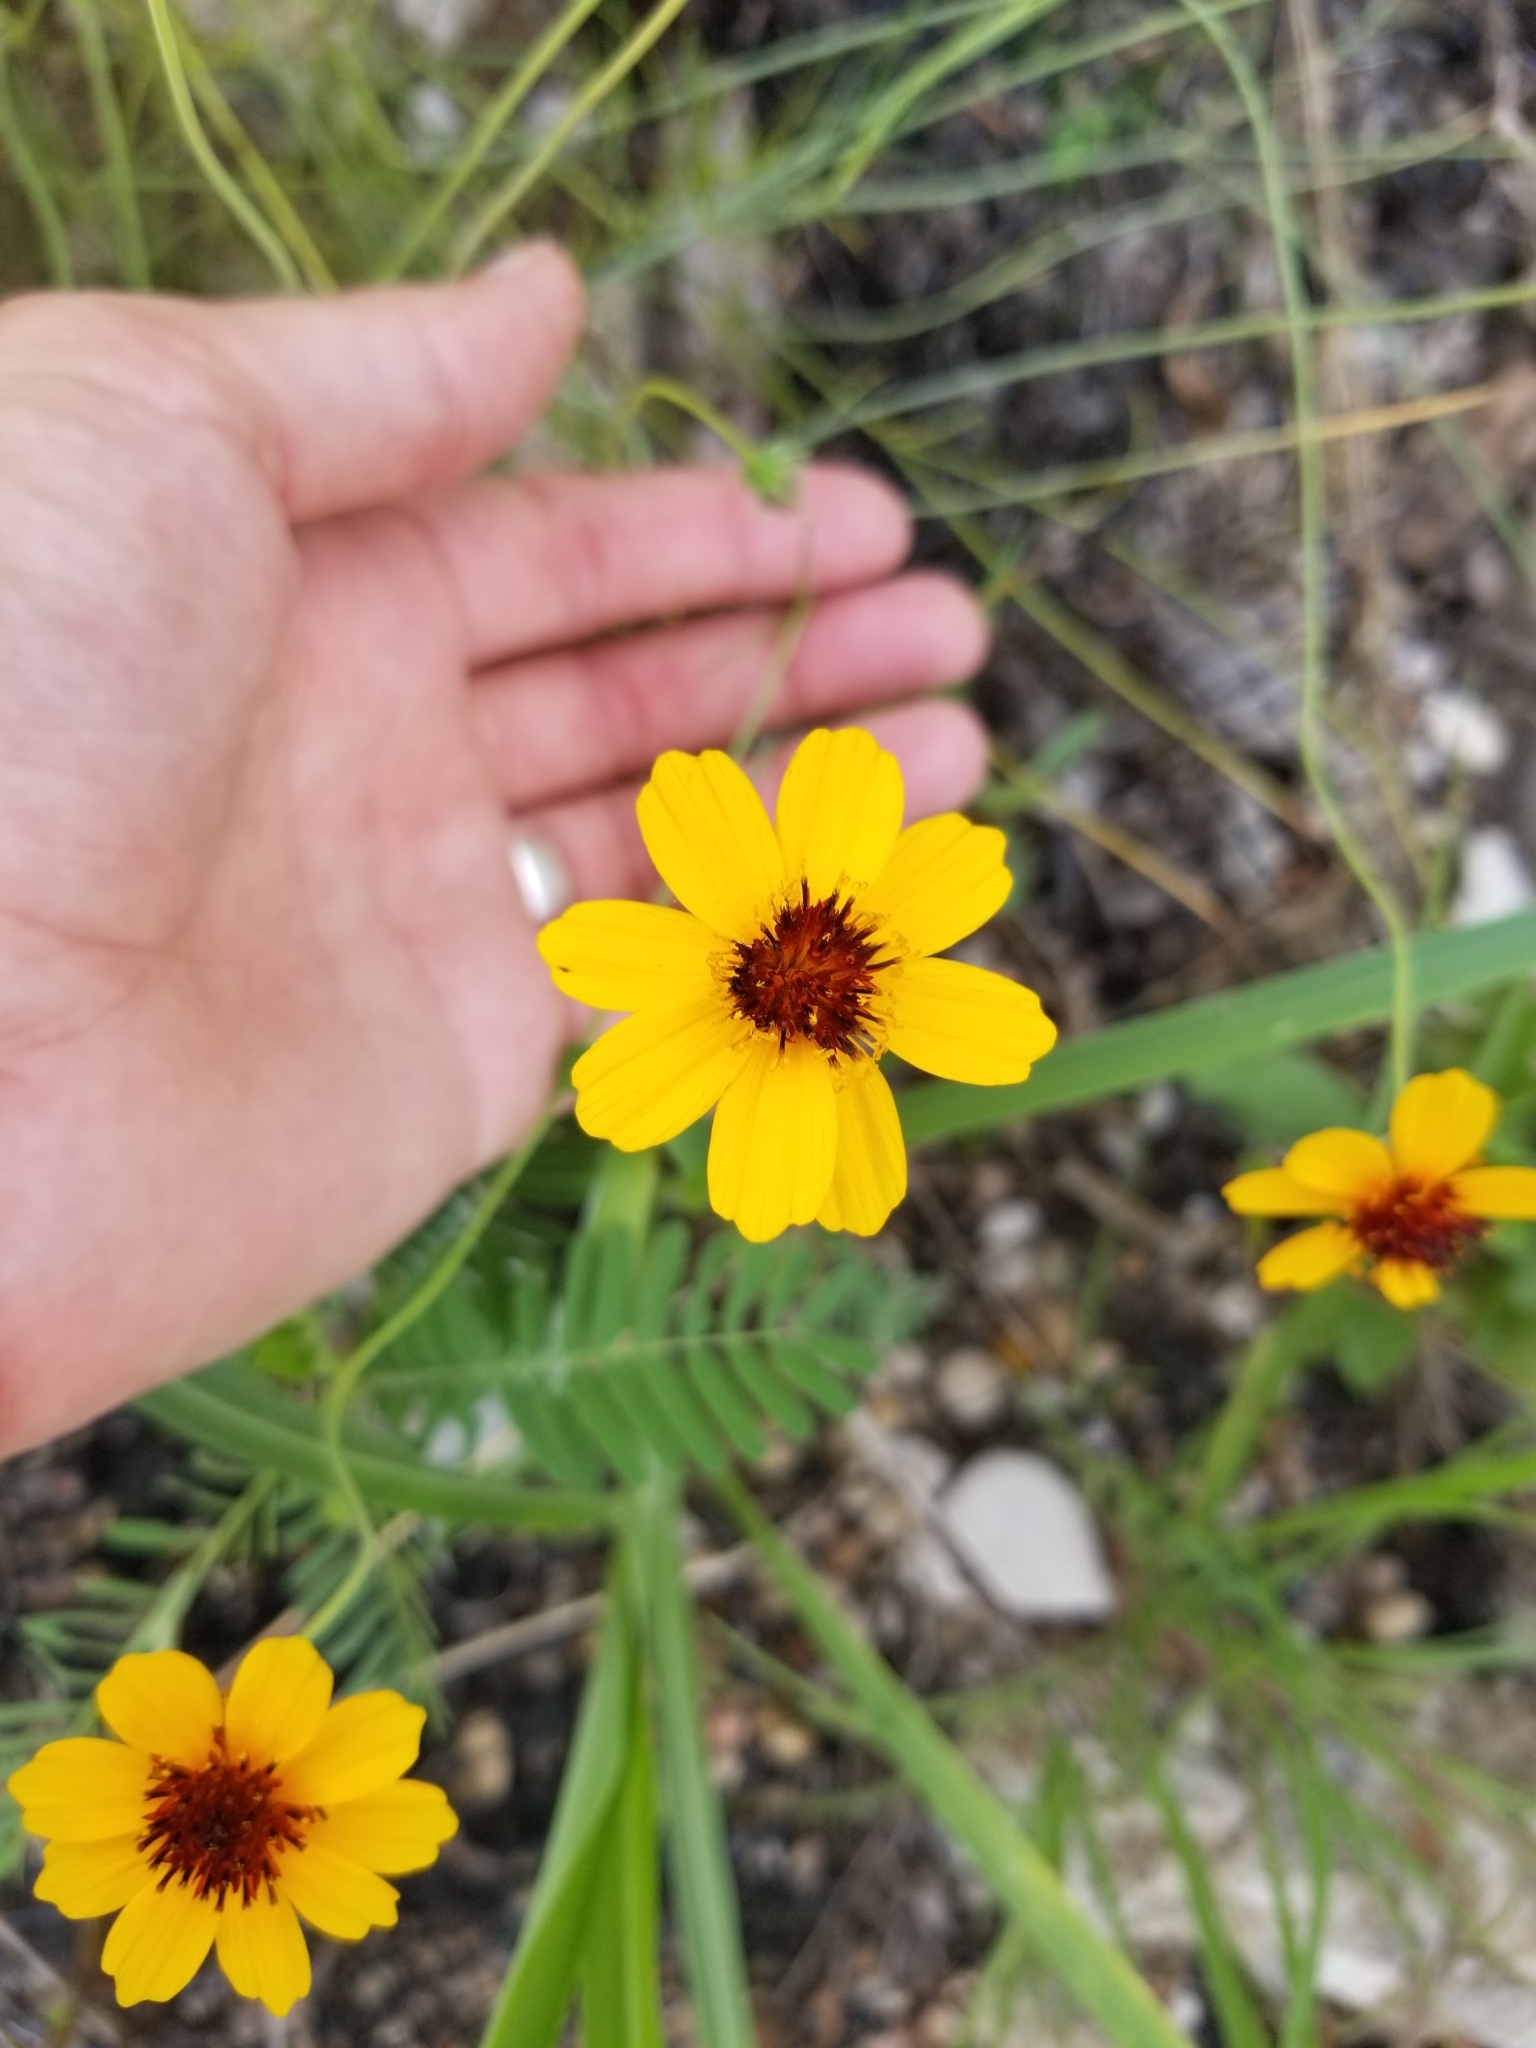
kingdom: Plantae
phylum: Tracheophyta
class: Magnoliopsida
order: Asterales
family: Asteraceae
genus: Thelesperma
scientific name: Thelesperma filifolium
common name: Stiff greenthread
